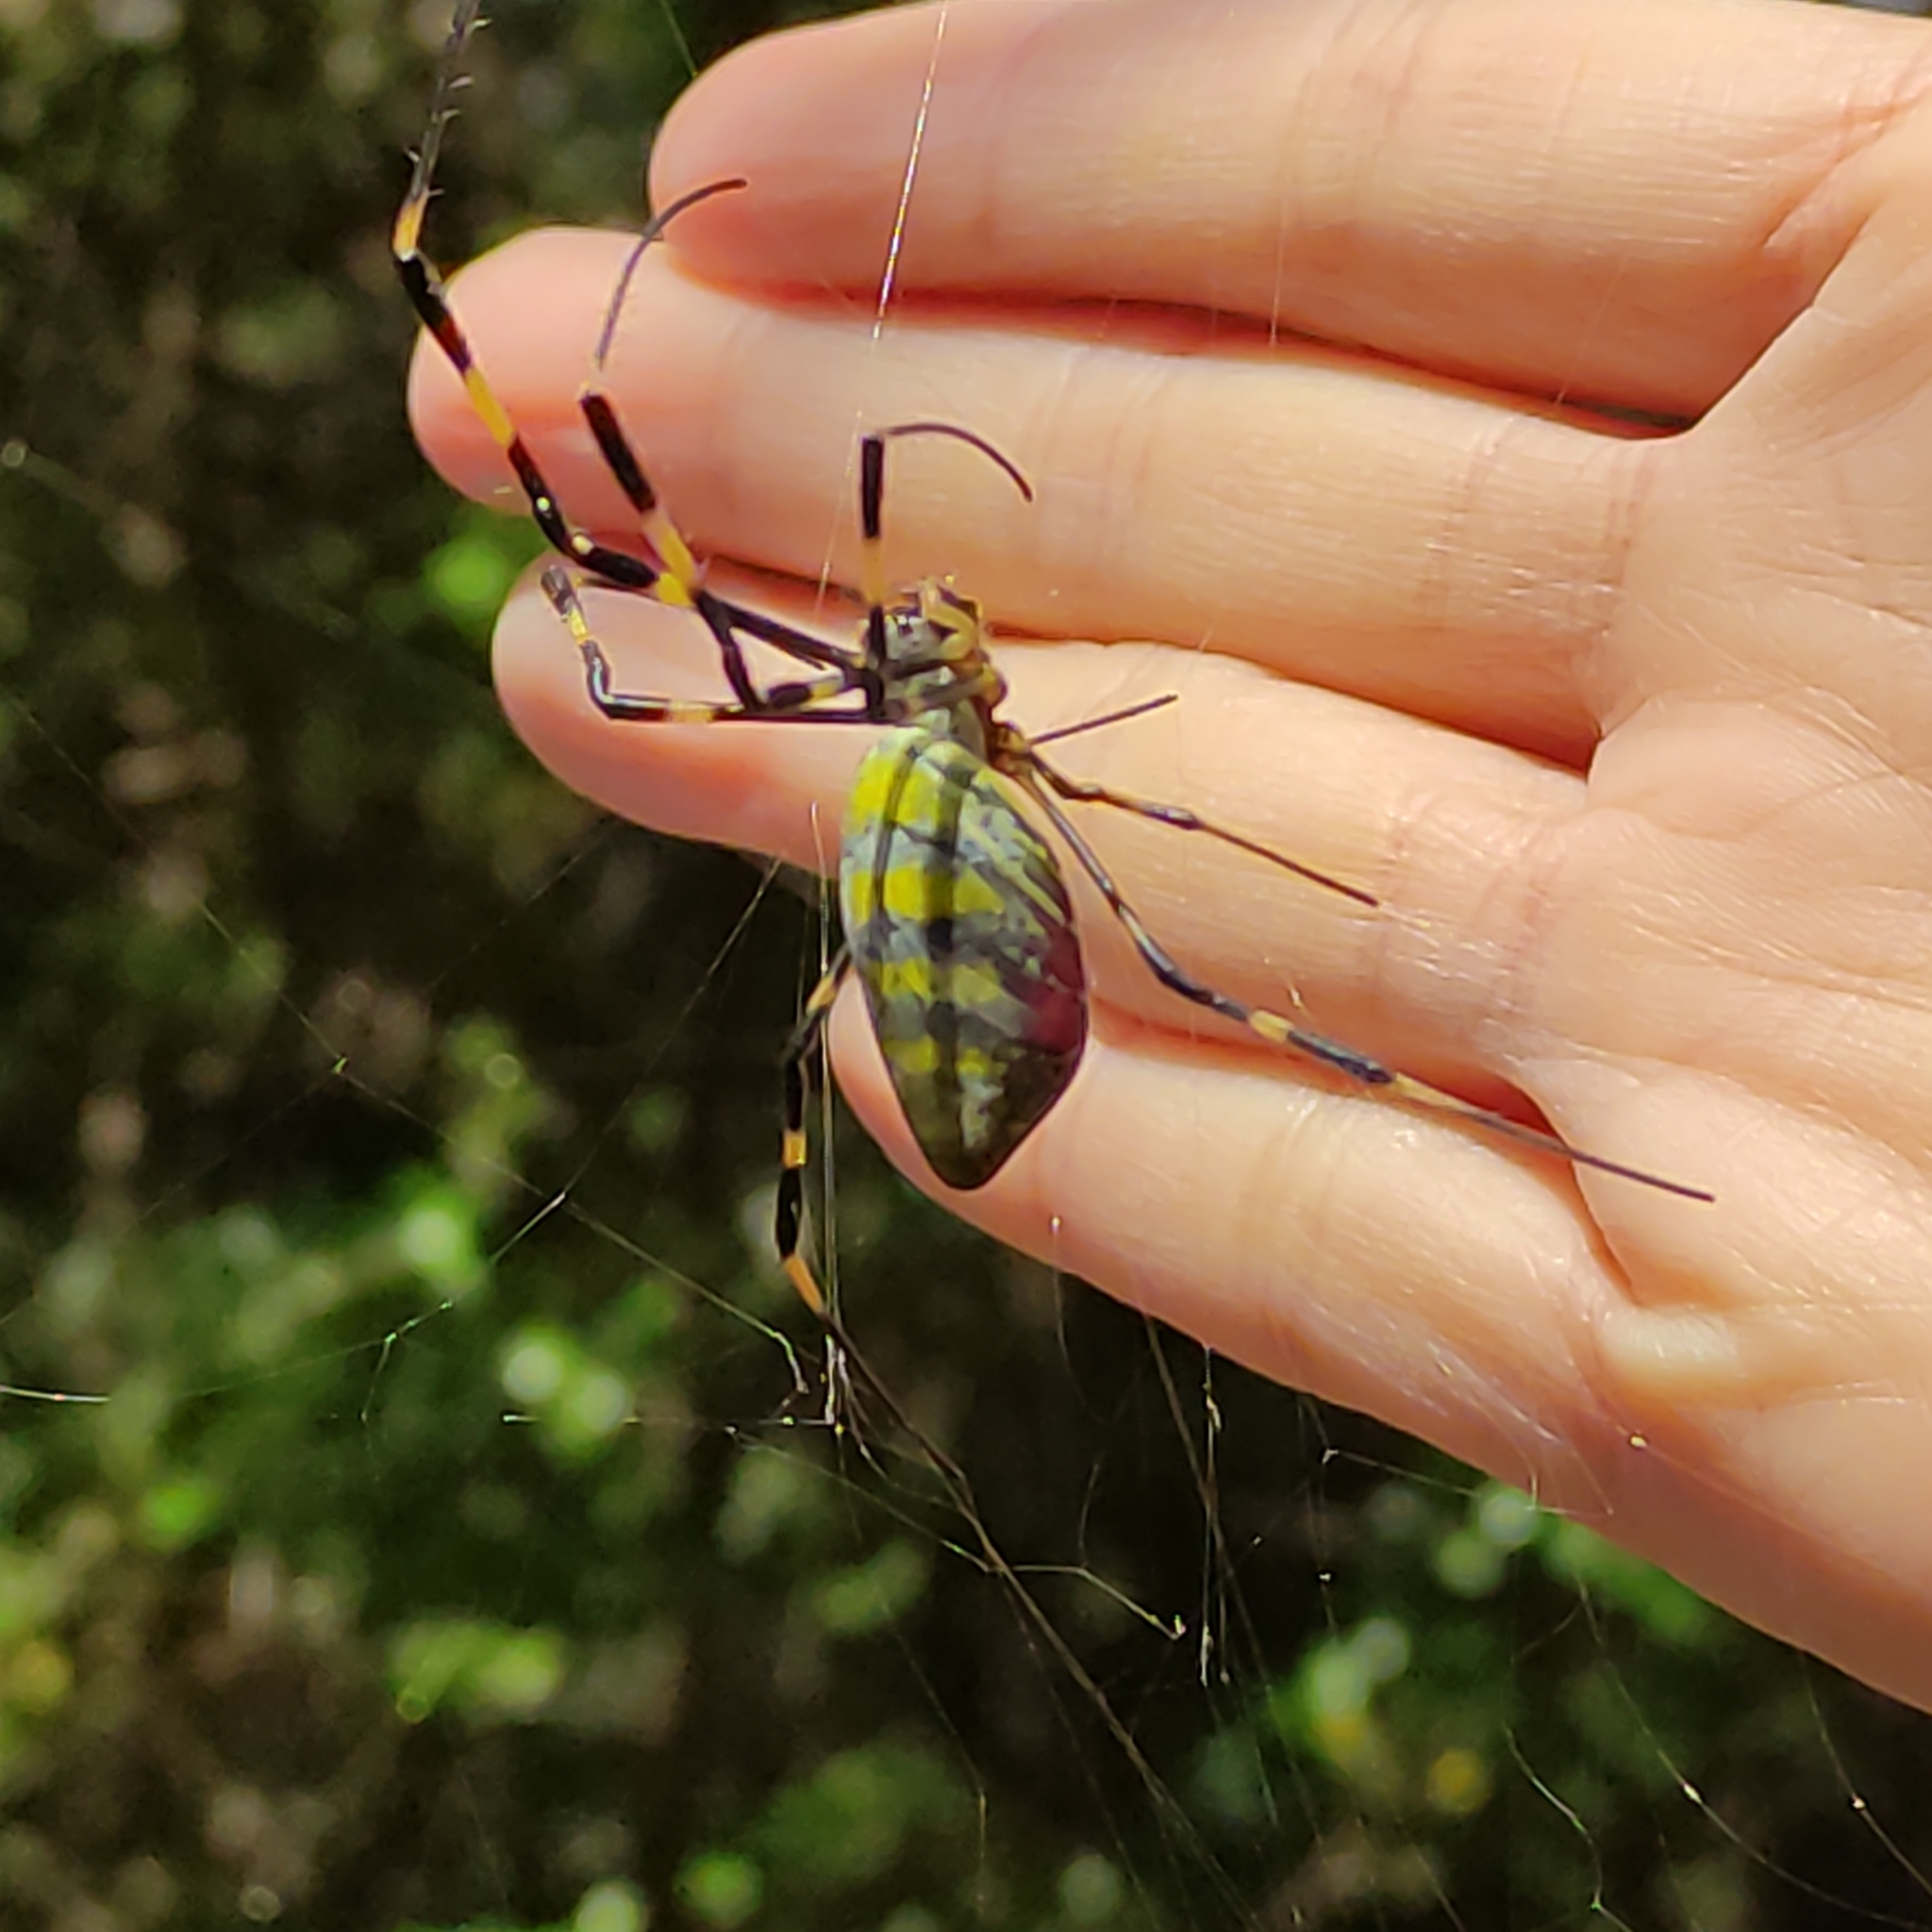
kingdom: Animalia
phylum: Arthropoda
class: Arachnida
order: Araneae
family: Araneidae
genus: Trichonephila
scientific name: Trichonephila clavata
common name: Jorō spider
